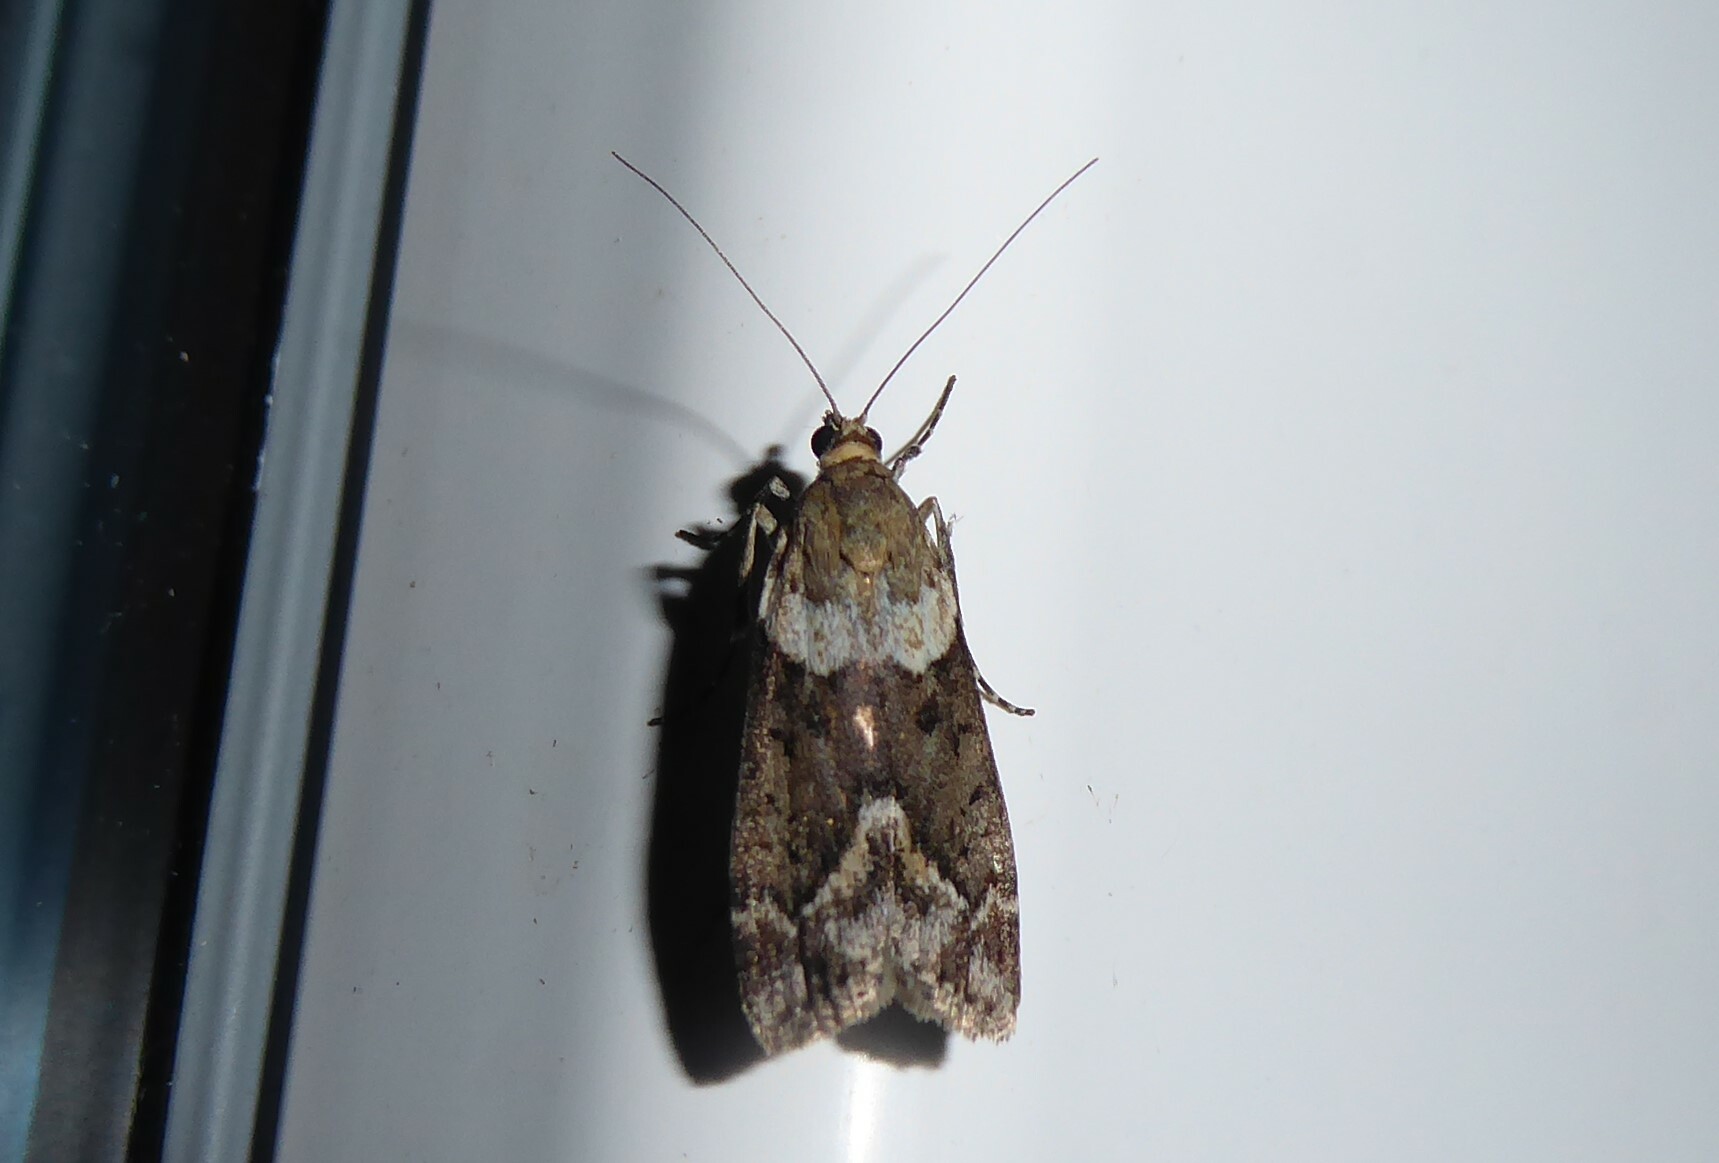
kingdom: Animalia
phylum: Arthropoda
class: Insecta
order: Lepidoptera
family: Crambidae
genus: Eudonia
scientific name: Eudonia submarginalis
